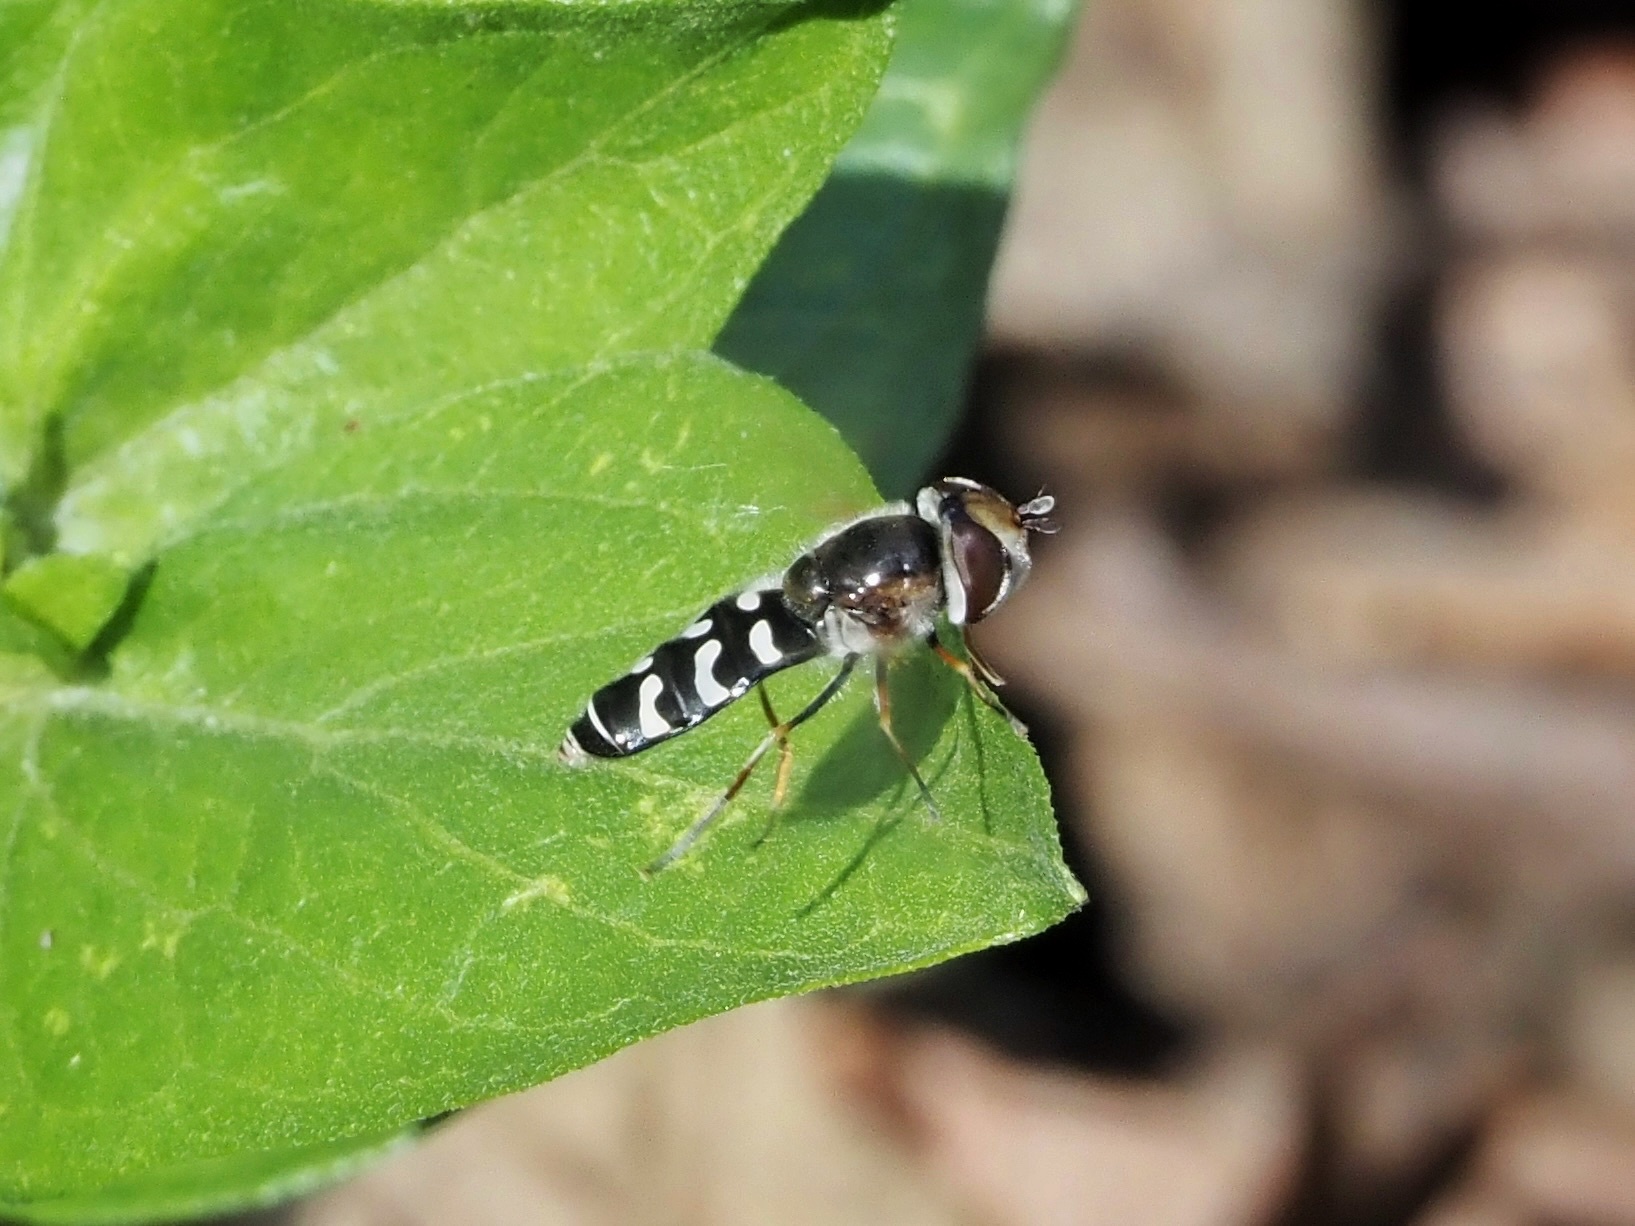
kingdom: Animalia
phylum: Arthropoda
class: Insecta
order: Diptera
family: Syrphidae
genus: Scaeva
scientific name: Scaeva affinis
